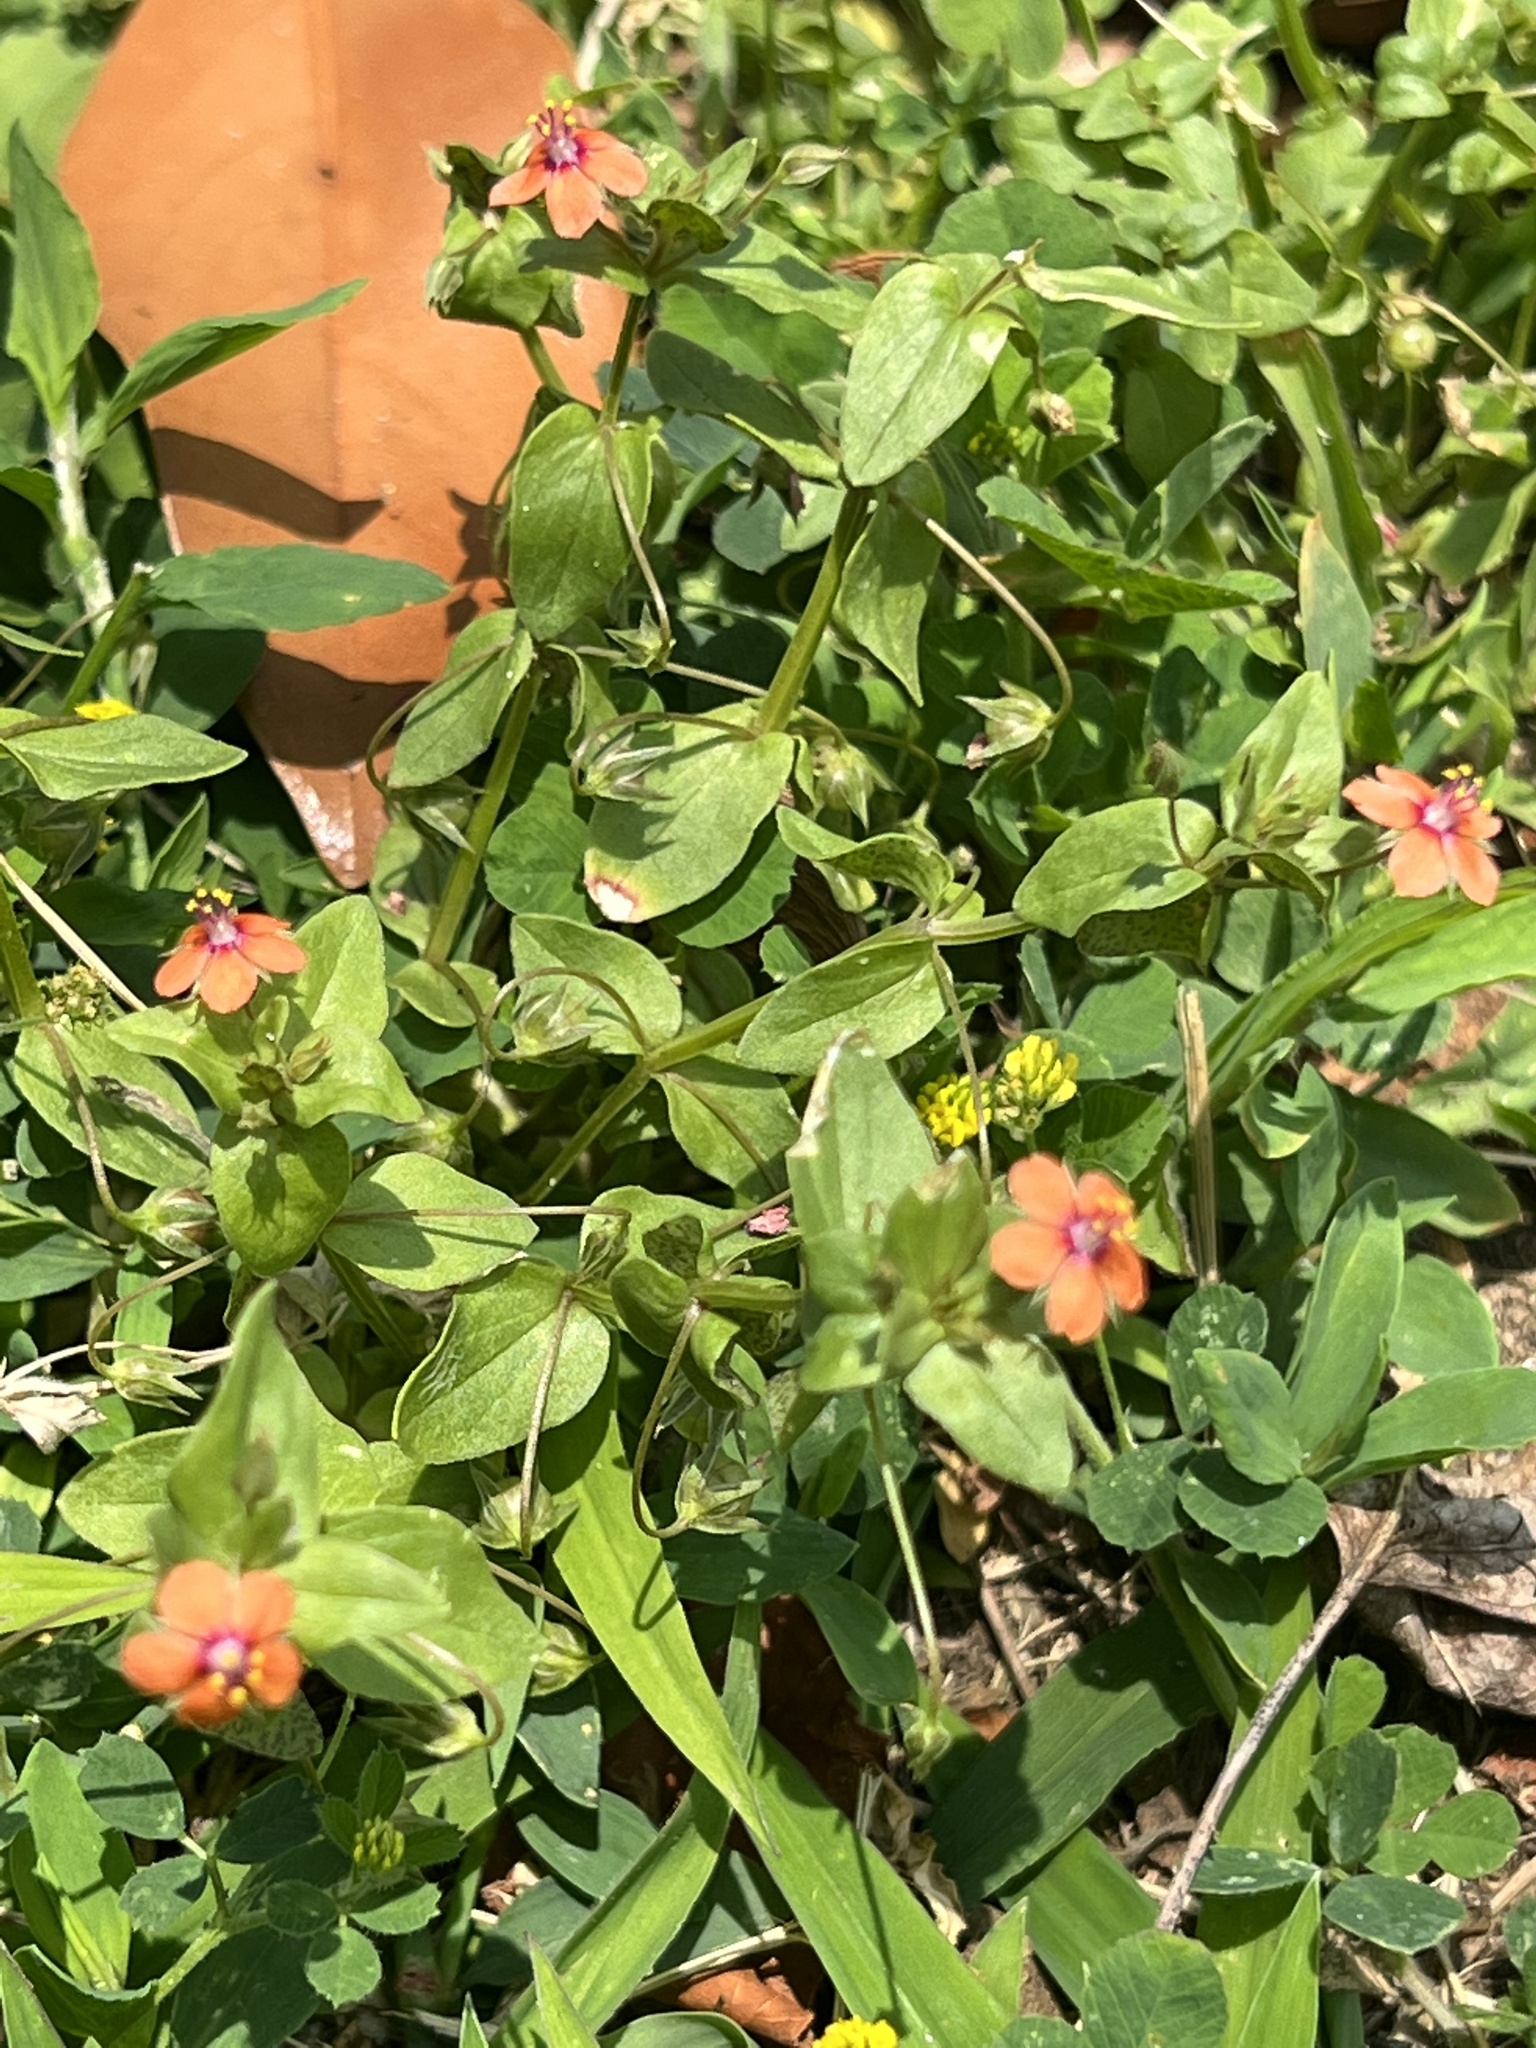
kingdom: Plantae
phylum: Tracheophyta
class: Magnoliopsida
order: Ericales
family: Primulaceae
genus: Lysimachia
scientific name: Lysimachia arvensis
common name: Scarlet pimpernel
